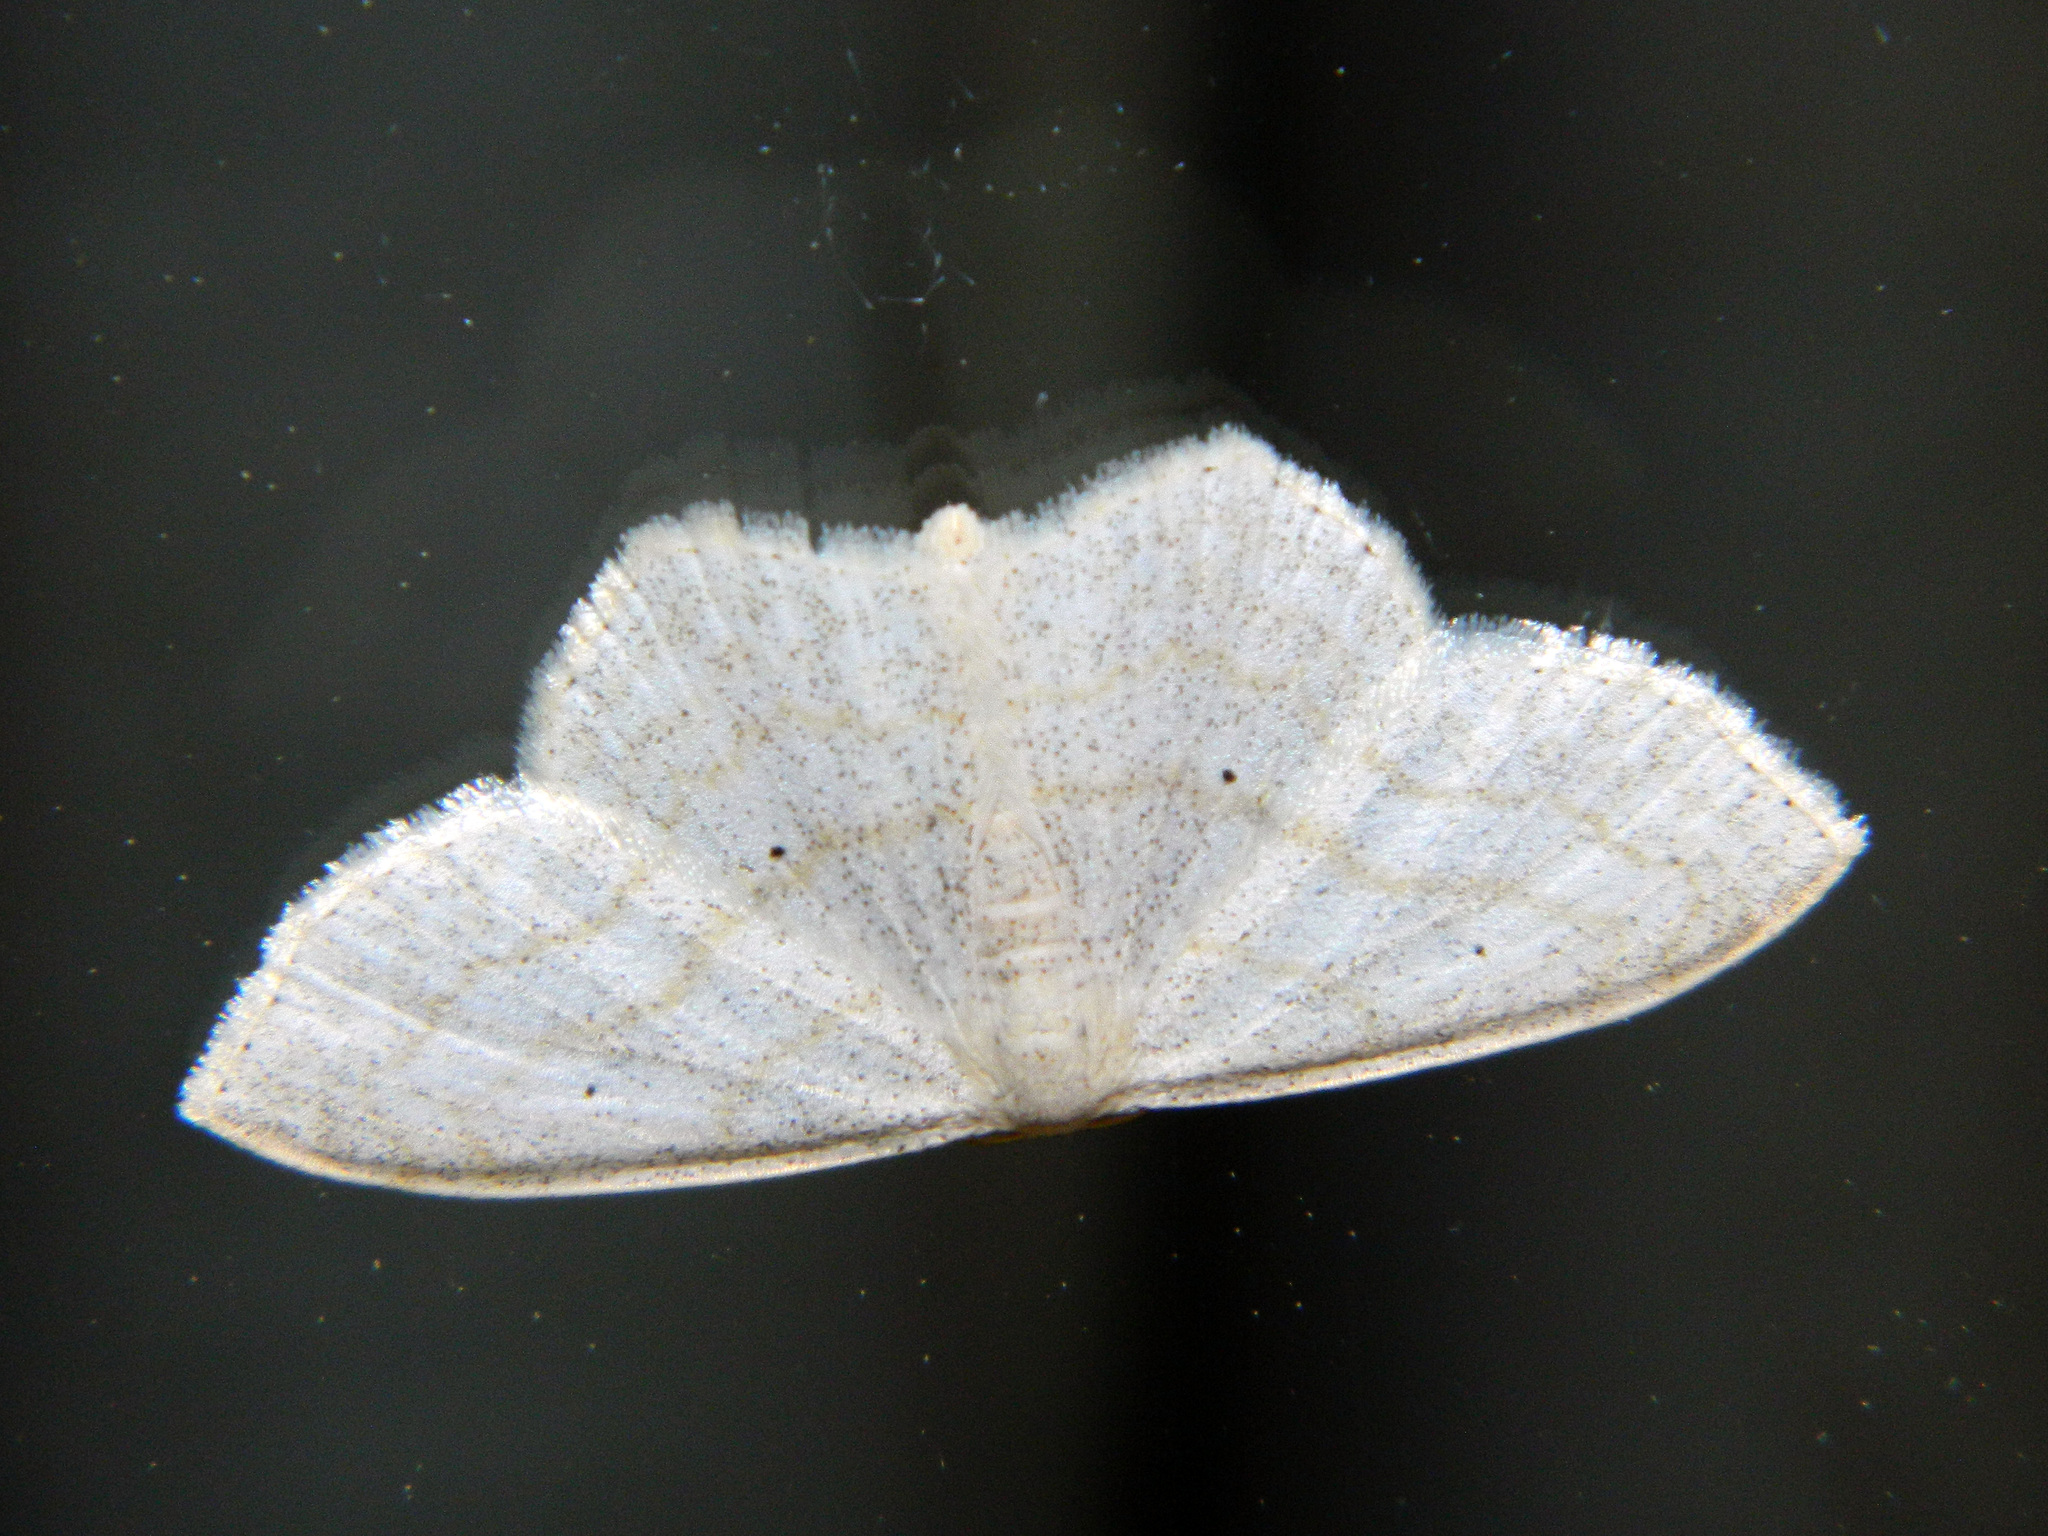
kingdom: Animalia
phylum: Arthropoda
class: Insecta
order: Lepidoptera
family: Geometridae
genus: Scopula
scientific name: Scopula limboundata
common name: Large lace border
